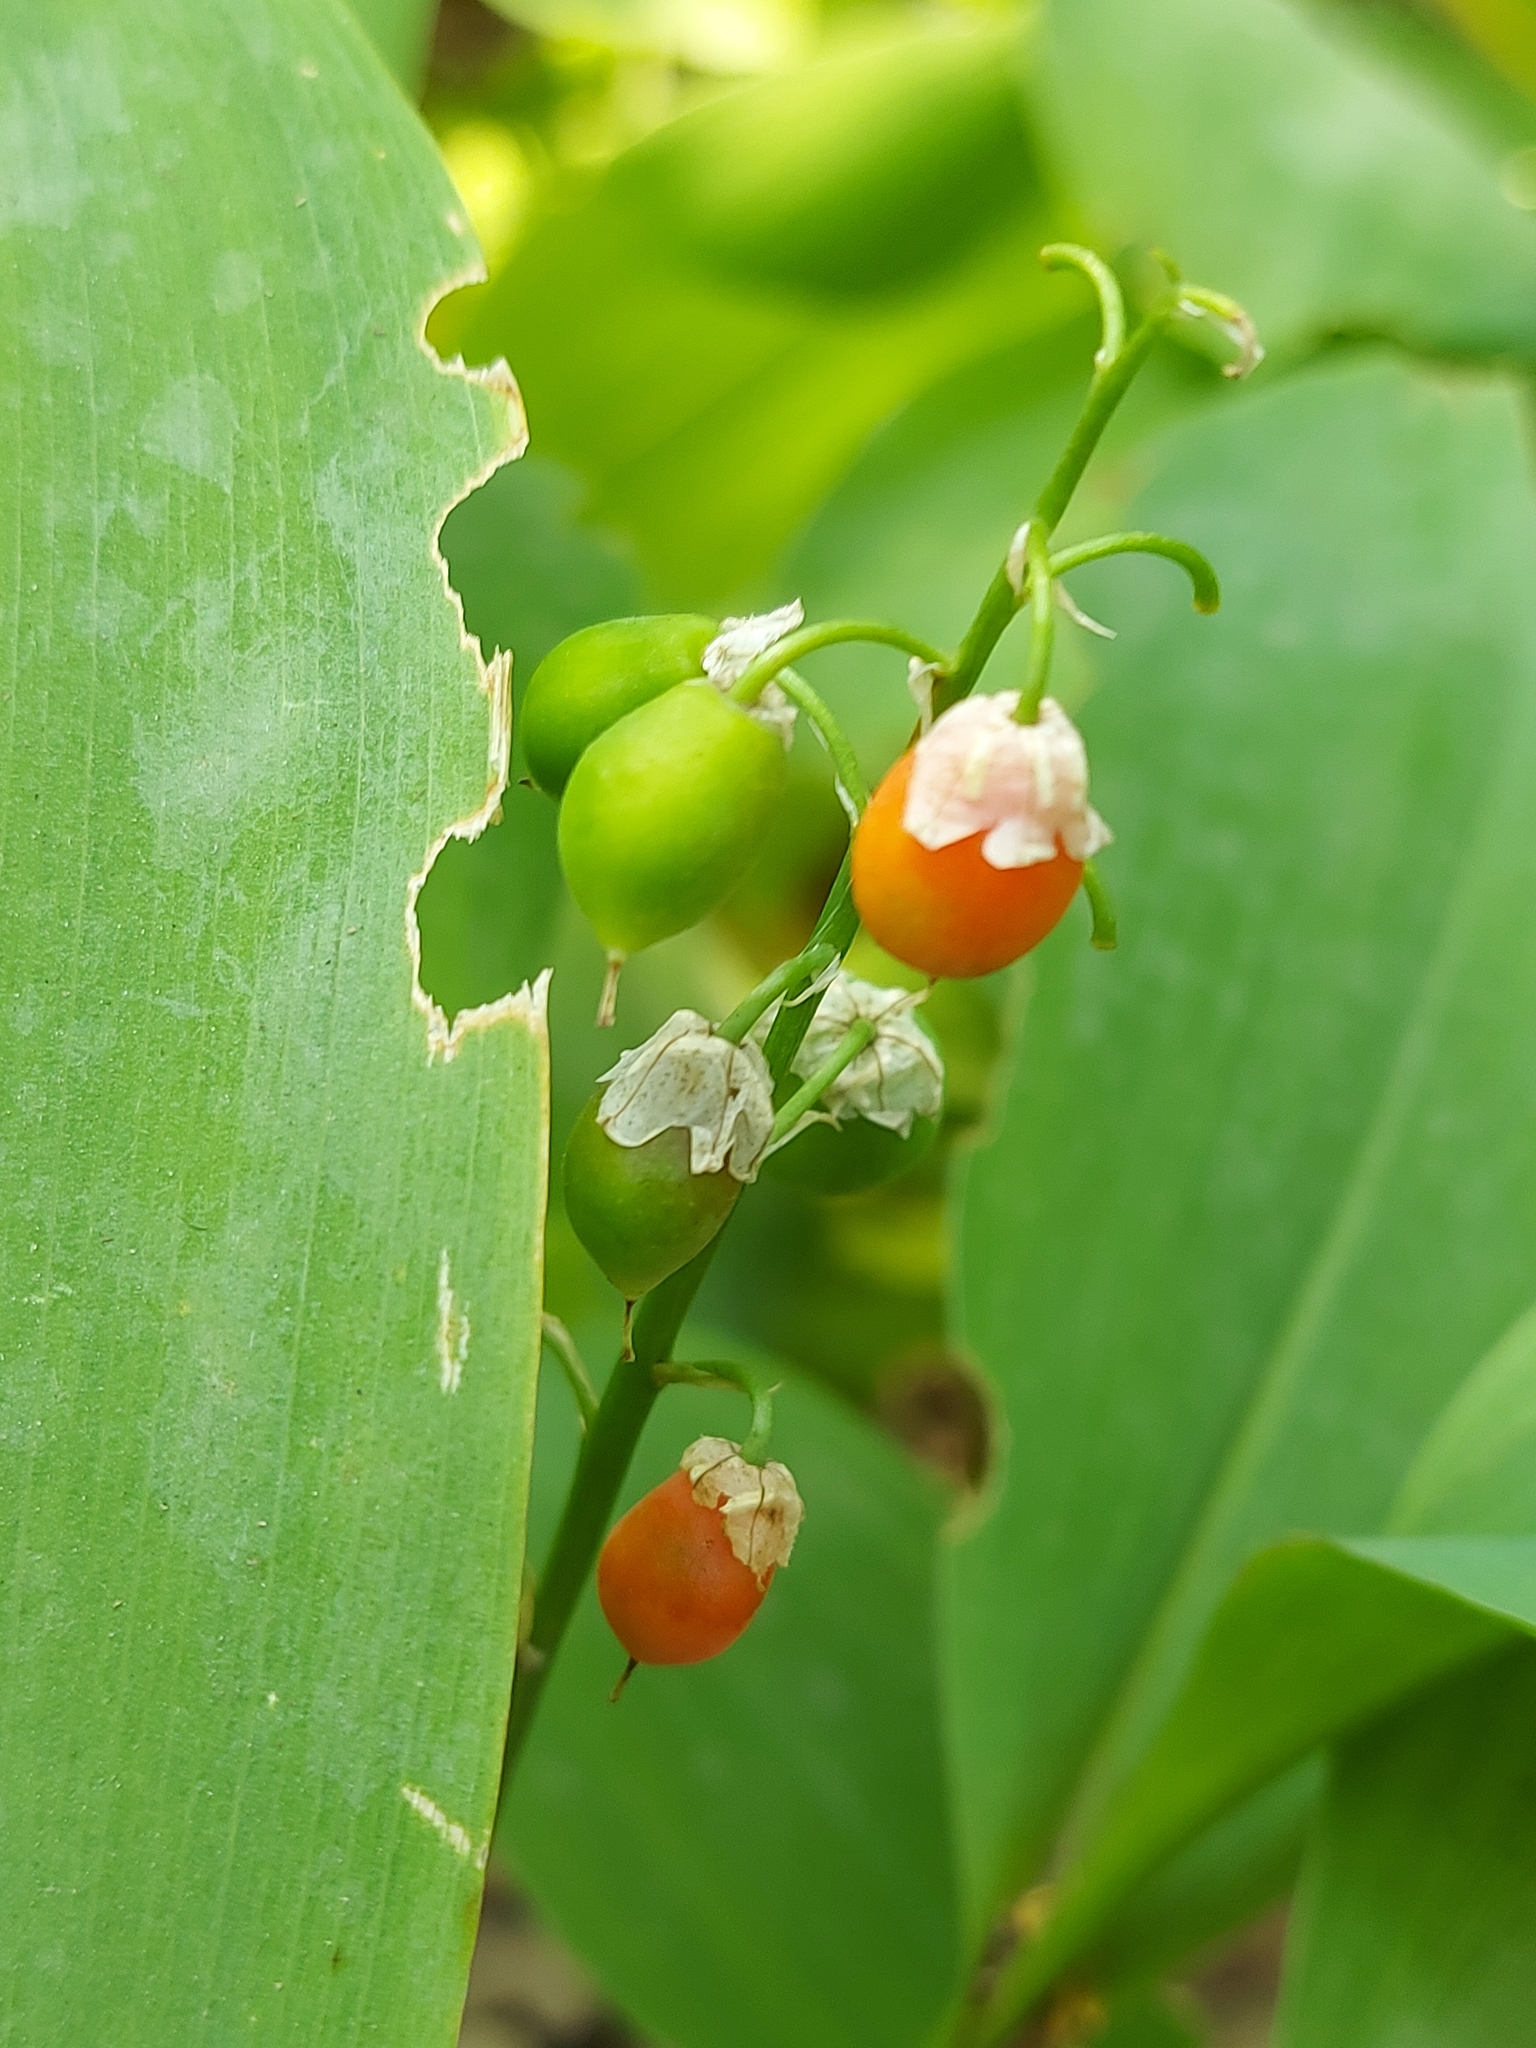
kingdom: Plantae
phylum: Tracheophyta
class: Liliopsida
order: Asparagales
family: Asparagaceae
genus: Convallaria
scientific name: Convallaria majalis
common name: Lily-of-the-valley
